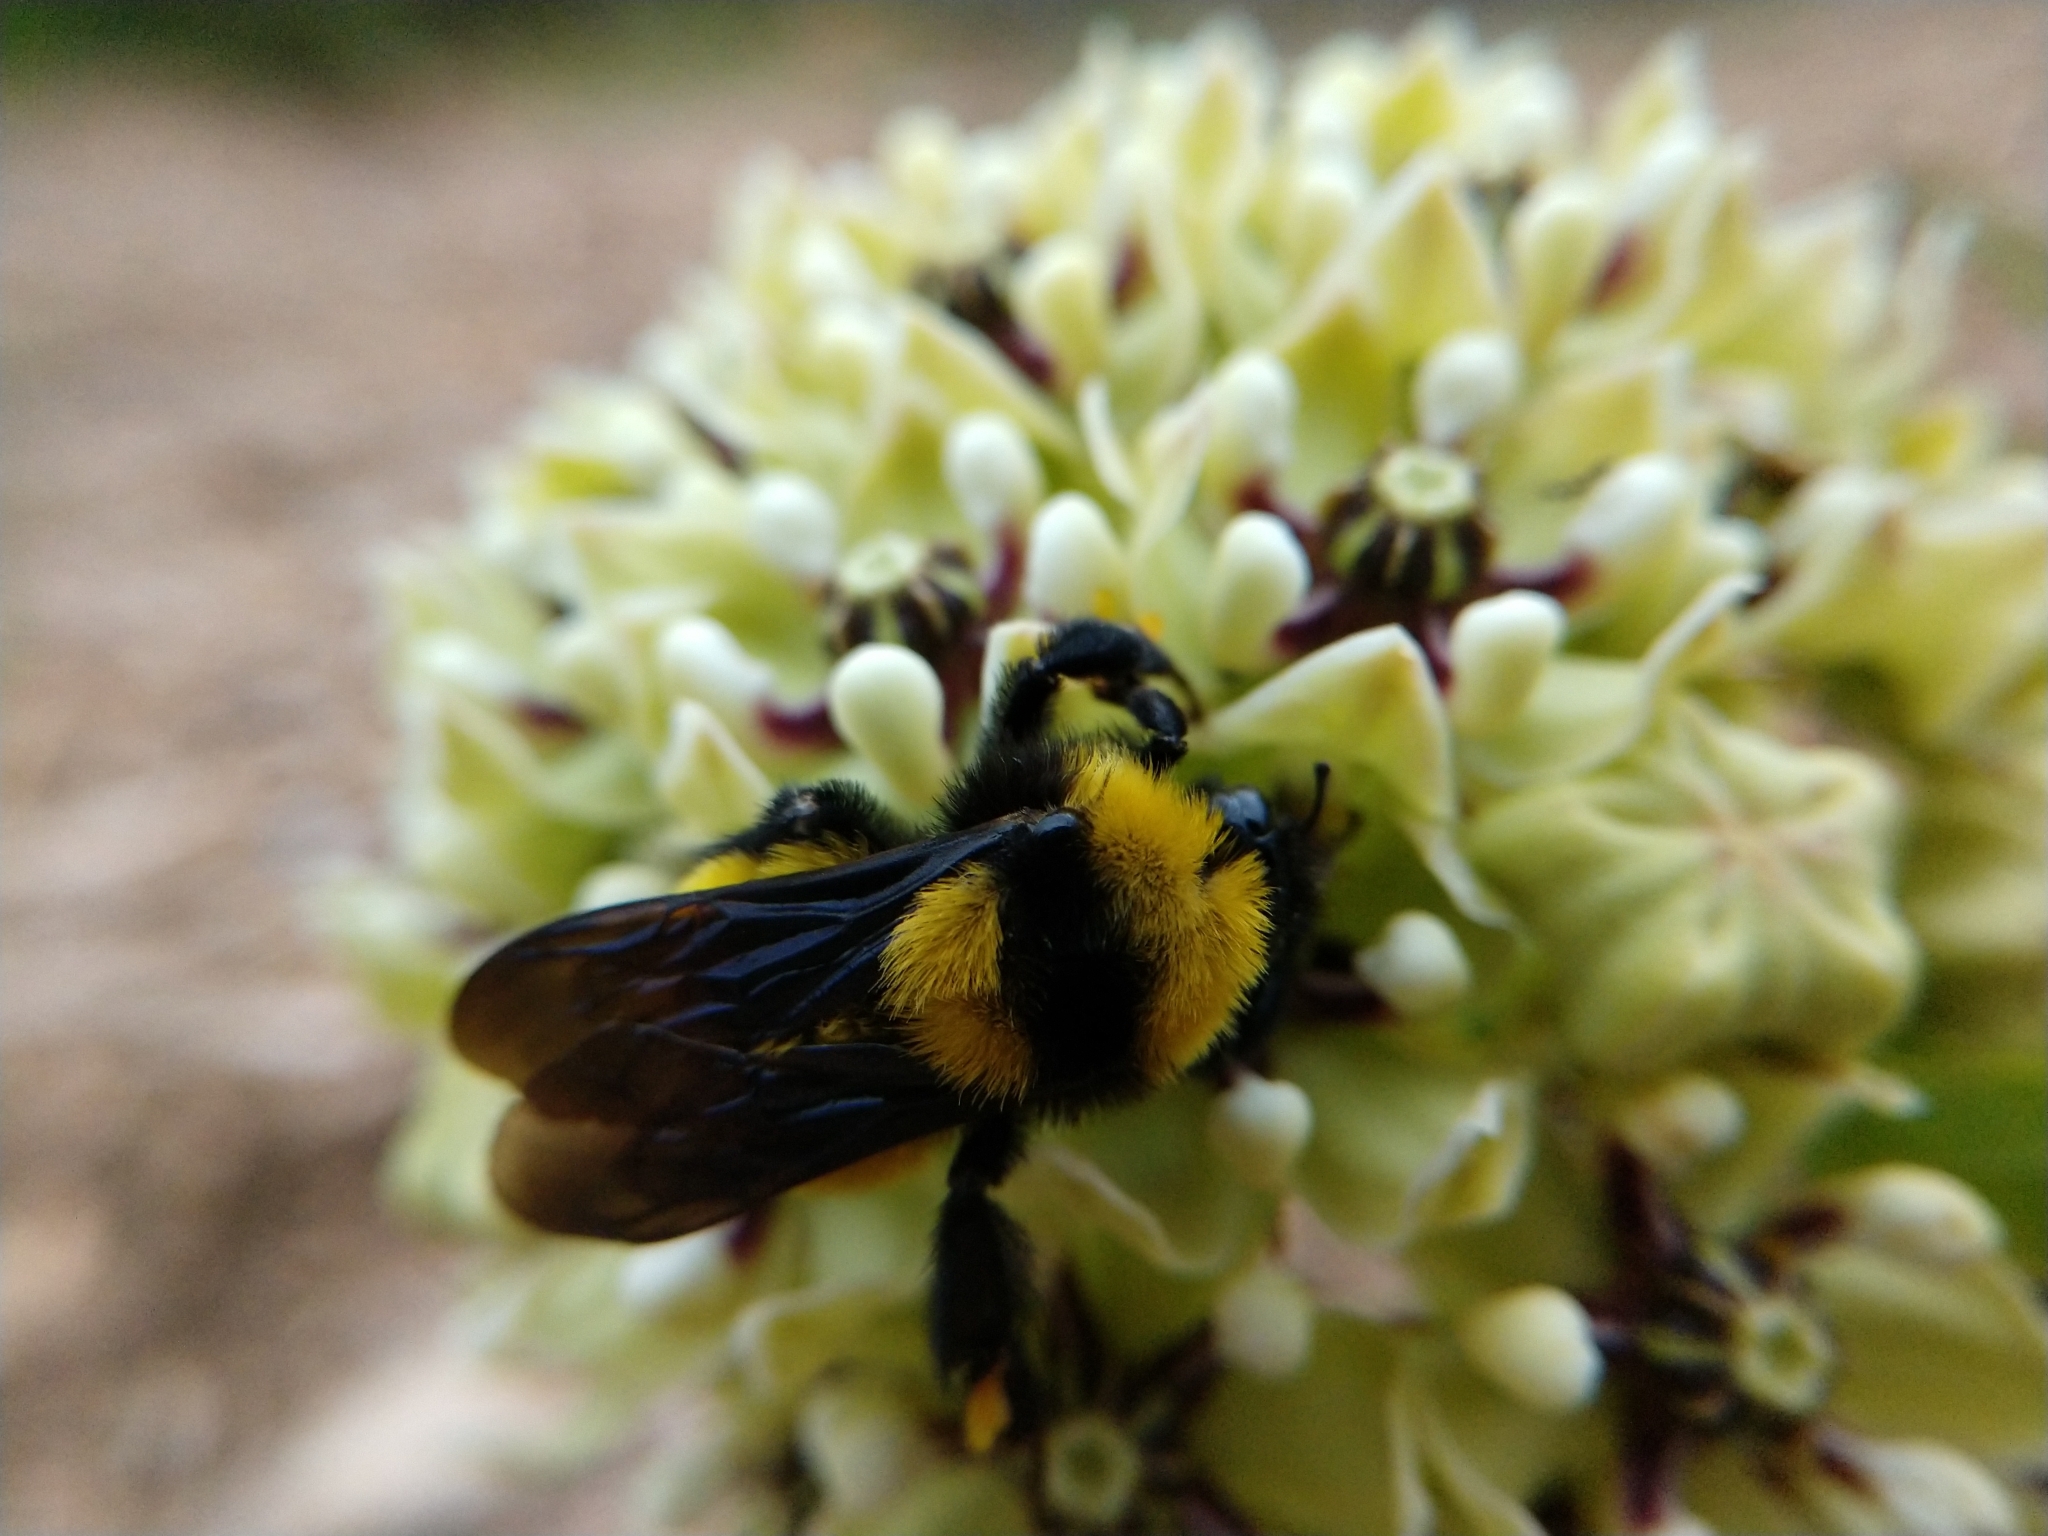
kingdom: Animalia
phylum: Arthropoda
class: Insecta
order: Hymenoptera
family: Apidae
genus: Bombus
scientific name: Bombus sonorus
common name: Sonoran bumble bee
